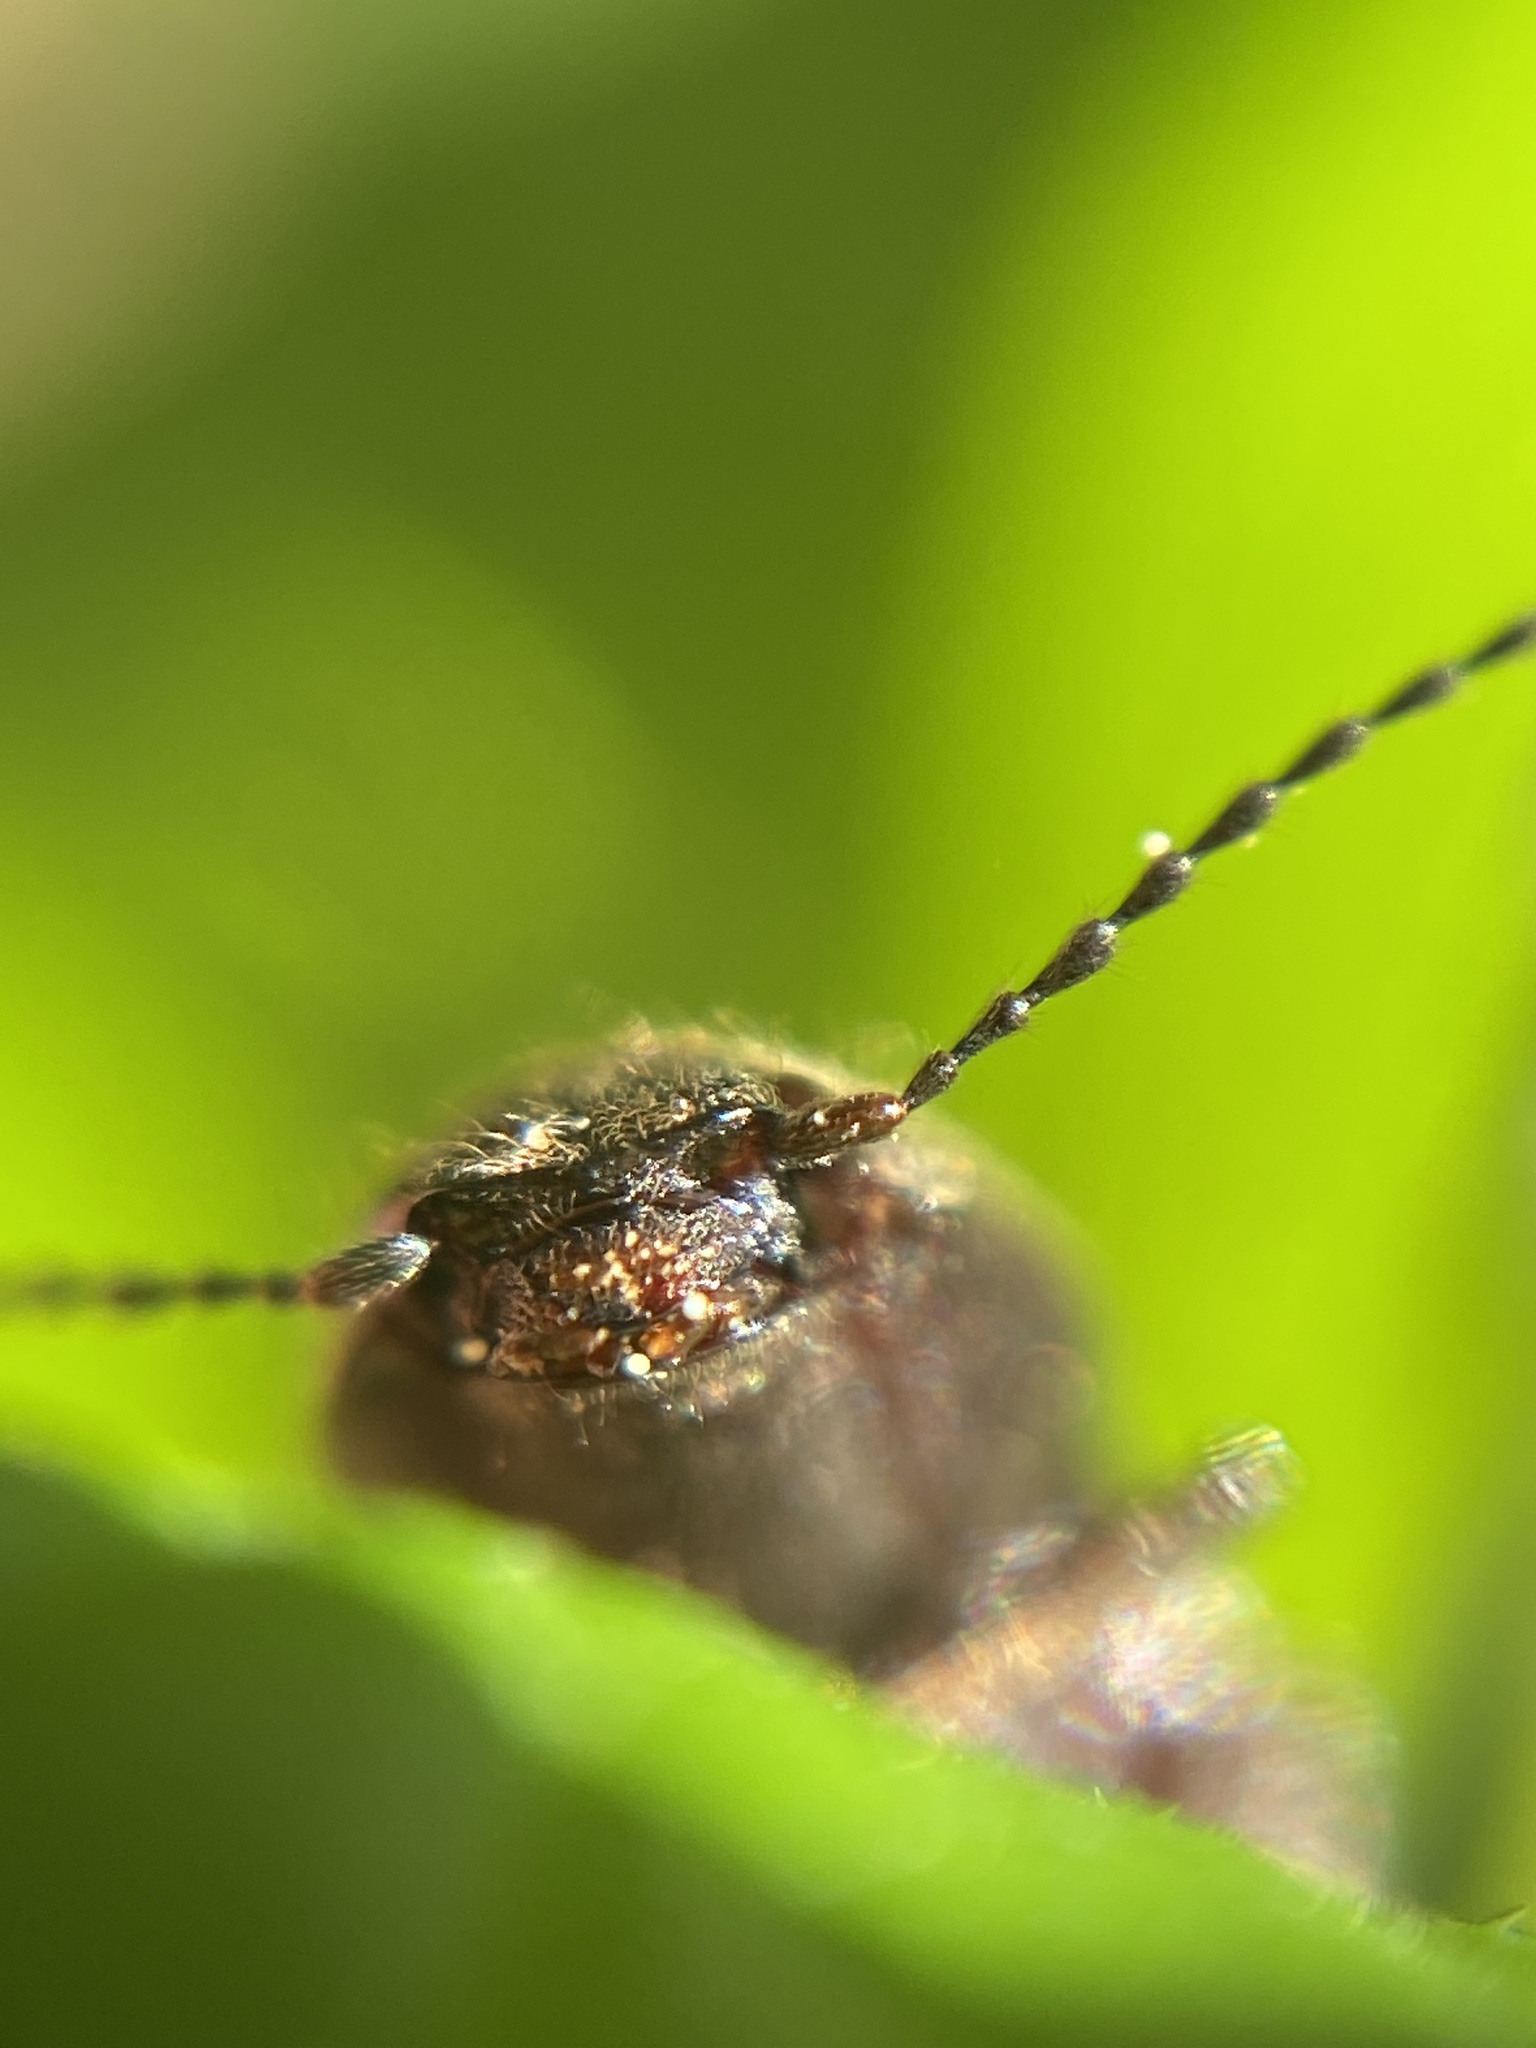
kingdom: Animalia
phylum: Arthropoda
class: Insecta
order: Coleoptera
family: Elateridae
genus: Athous
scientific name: Athous haemorrhoidalis
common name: Red-brown click beetle
